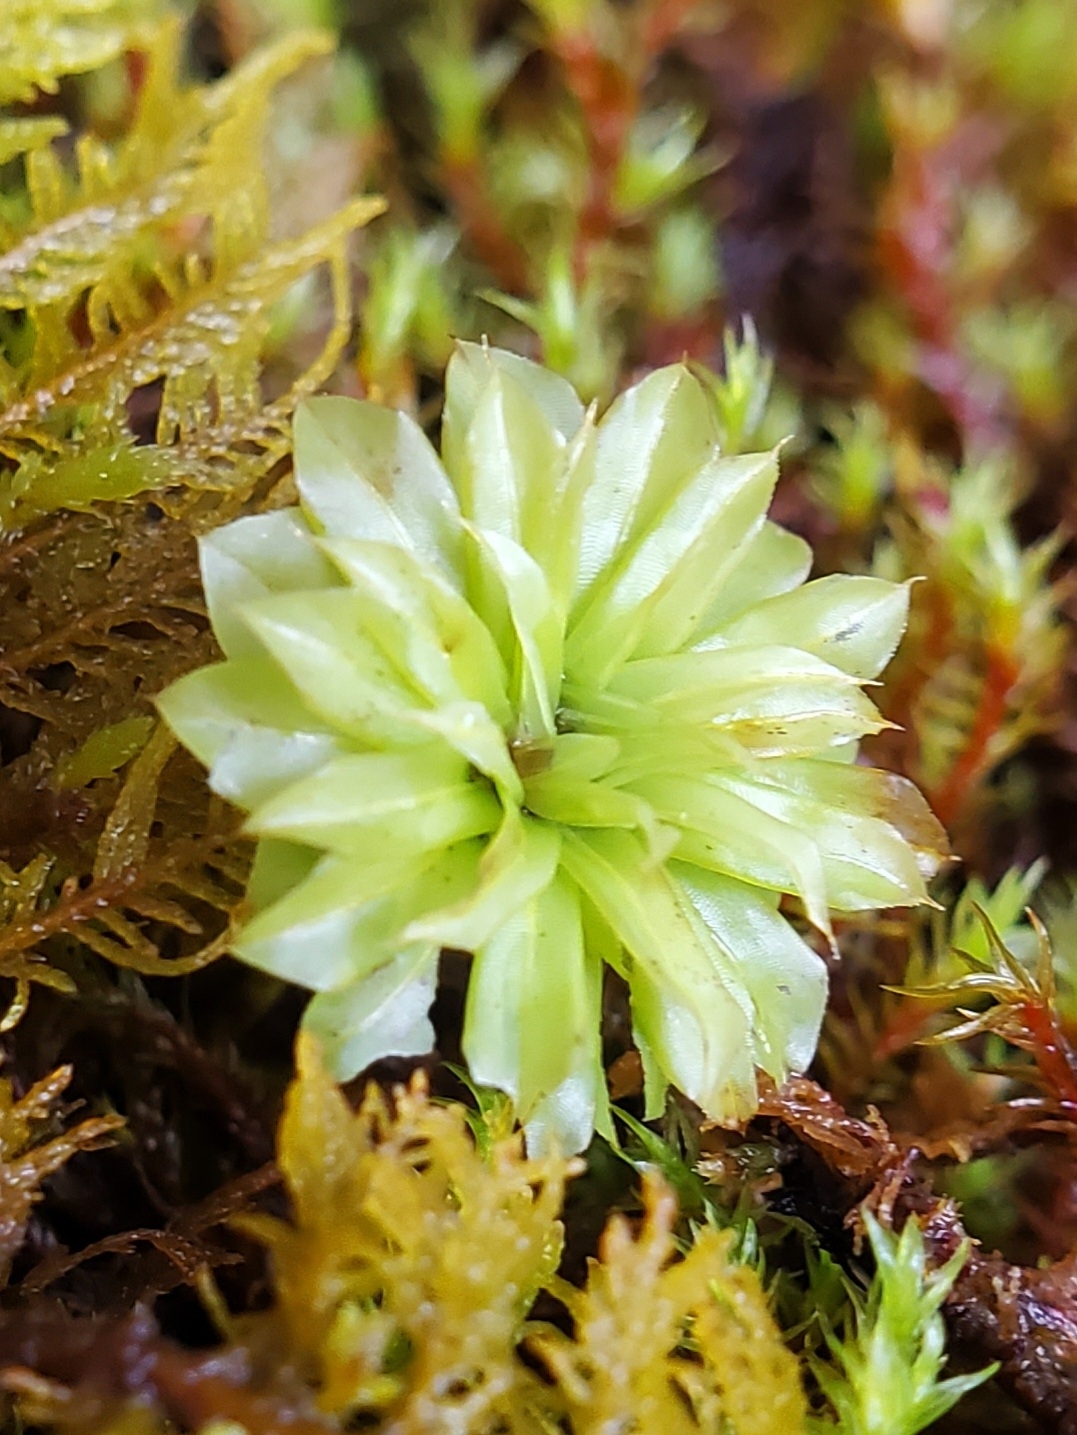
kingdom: Plantae
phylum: Bryophyta
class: Bryopsida
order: Bryales
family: Bryaceae
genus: Rhodobryum
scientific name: Rhodobryum ontariense
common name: Ontario rhodobryum moss
